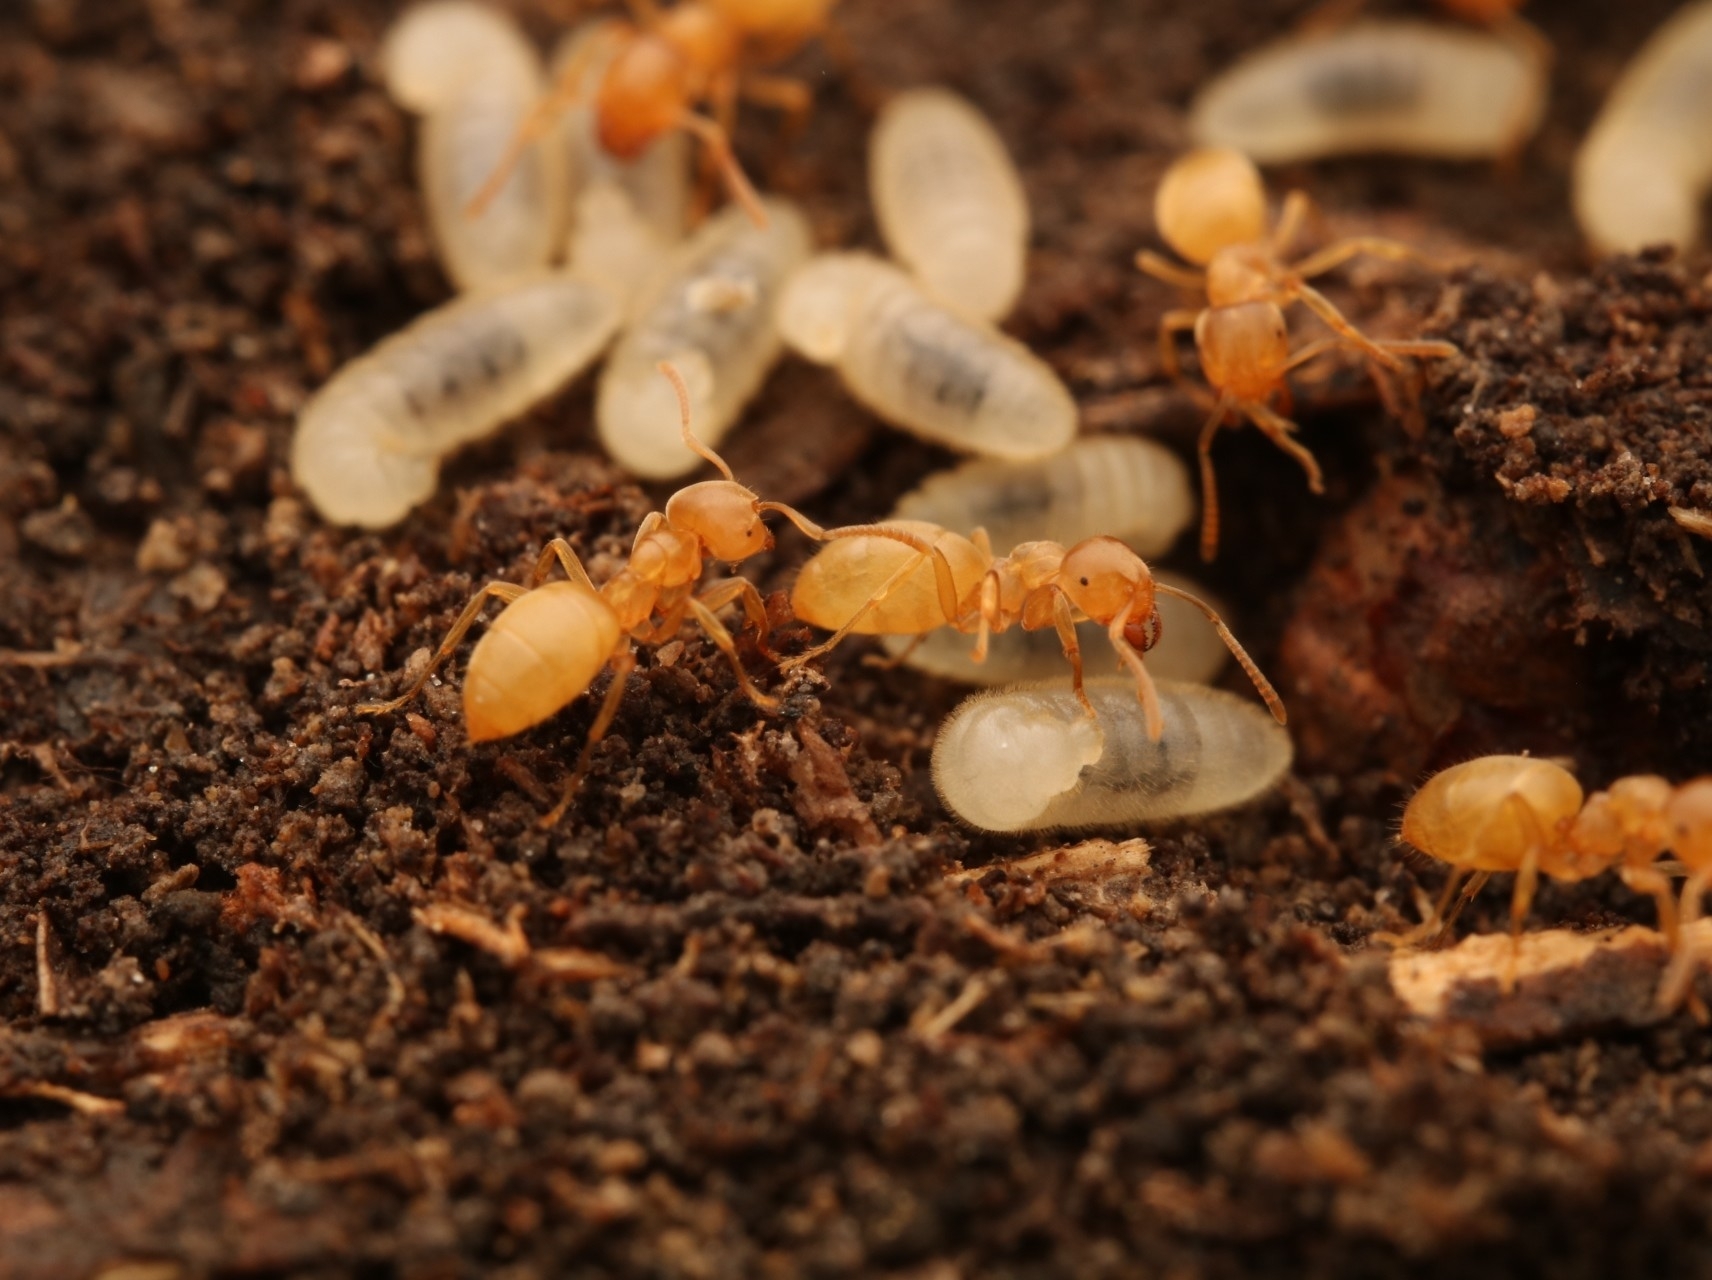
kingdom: Animalia
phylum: Arthropoda
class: Insecta
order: Hymenoptera
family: Formicidae
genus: Lasius
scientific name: Lasius nearcticus
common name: New world fuzzy ant
